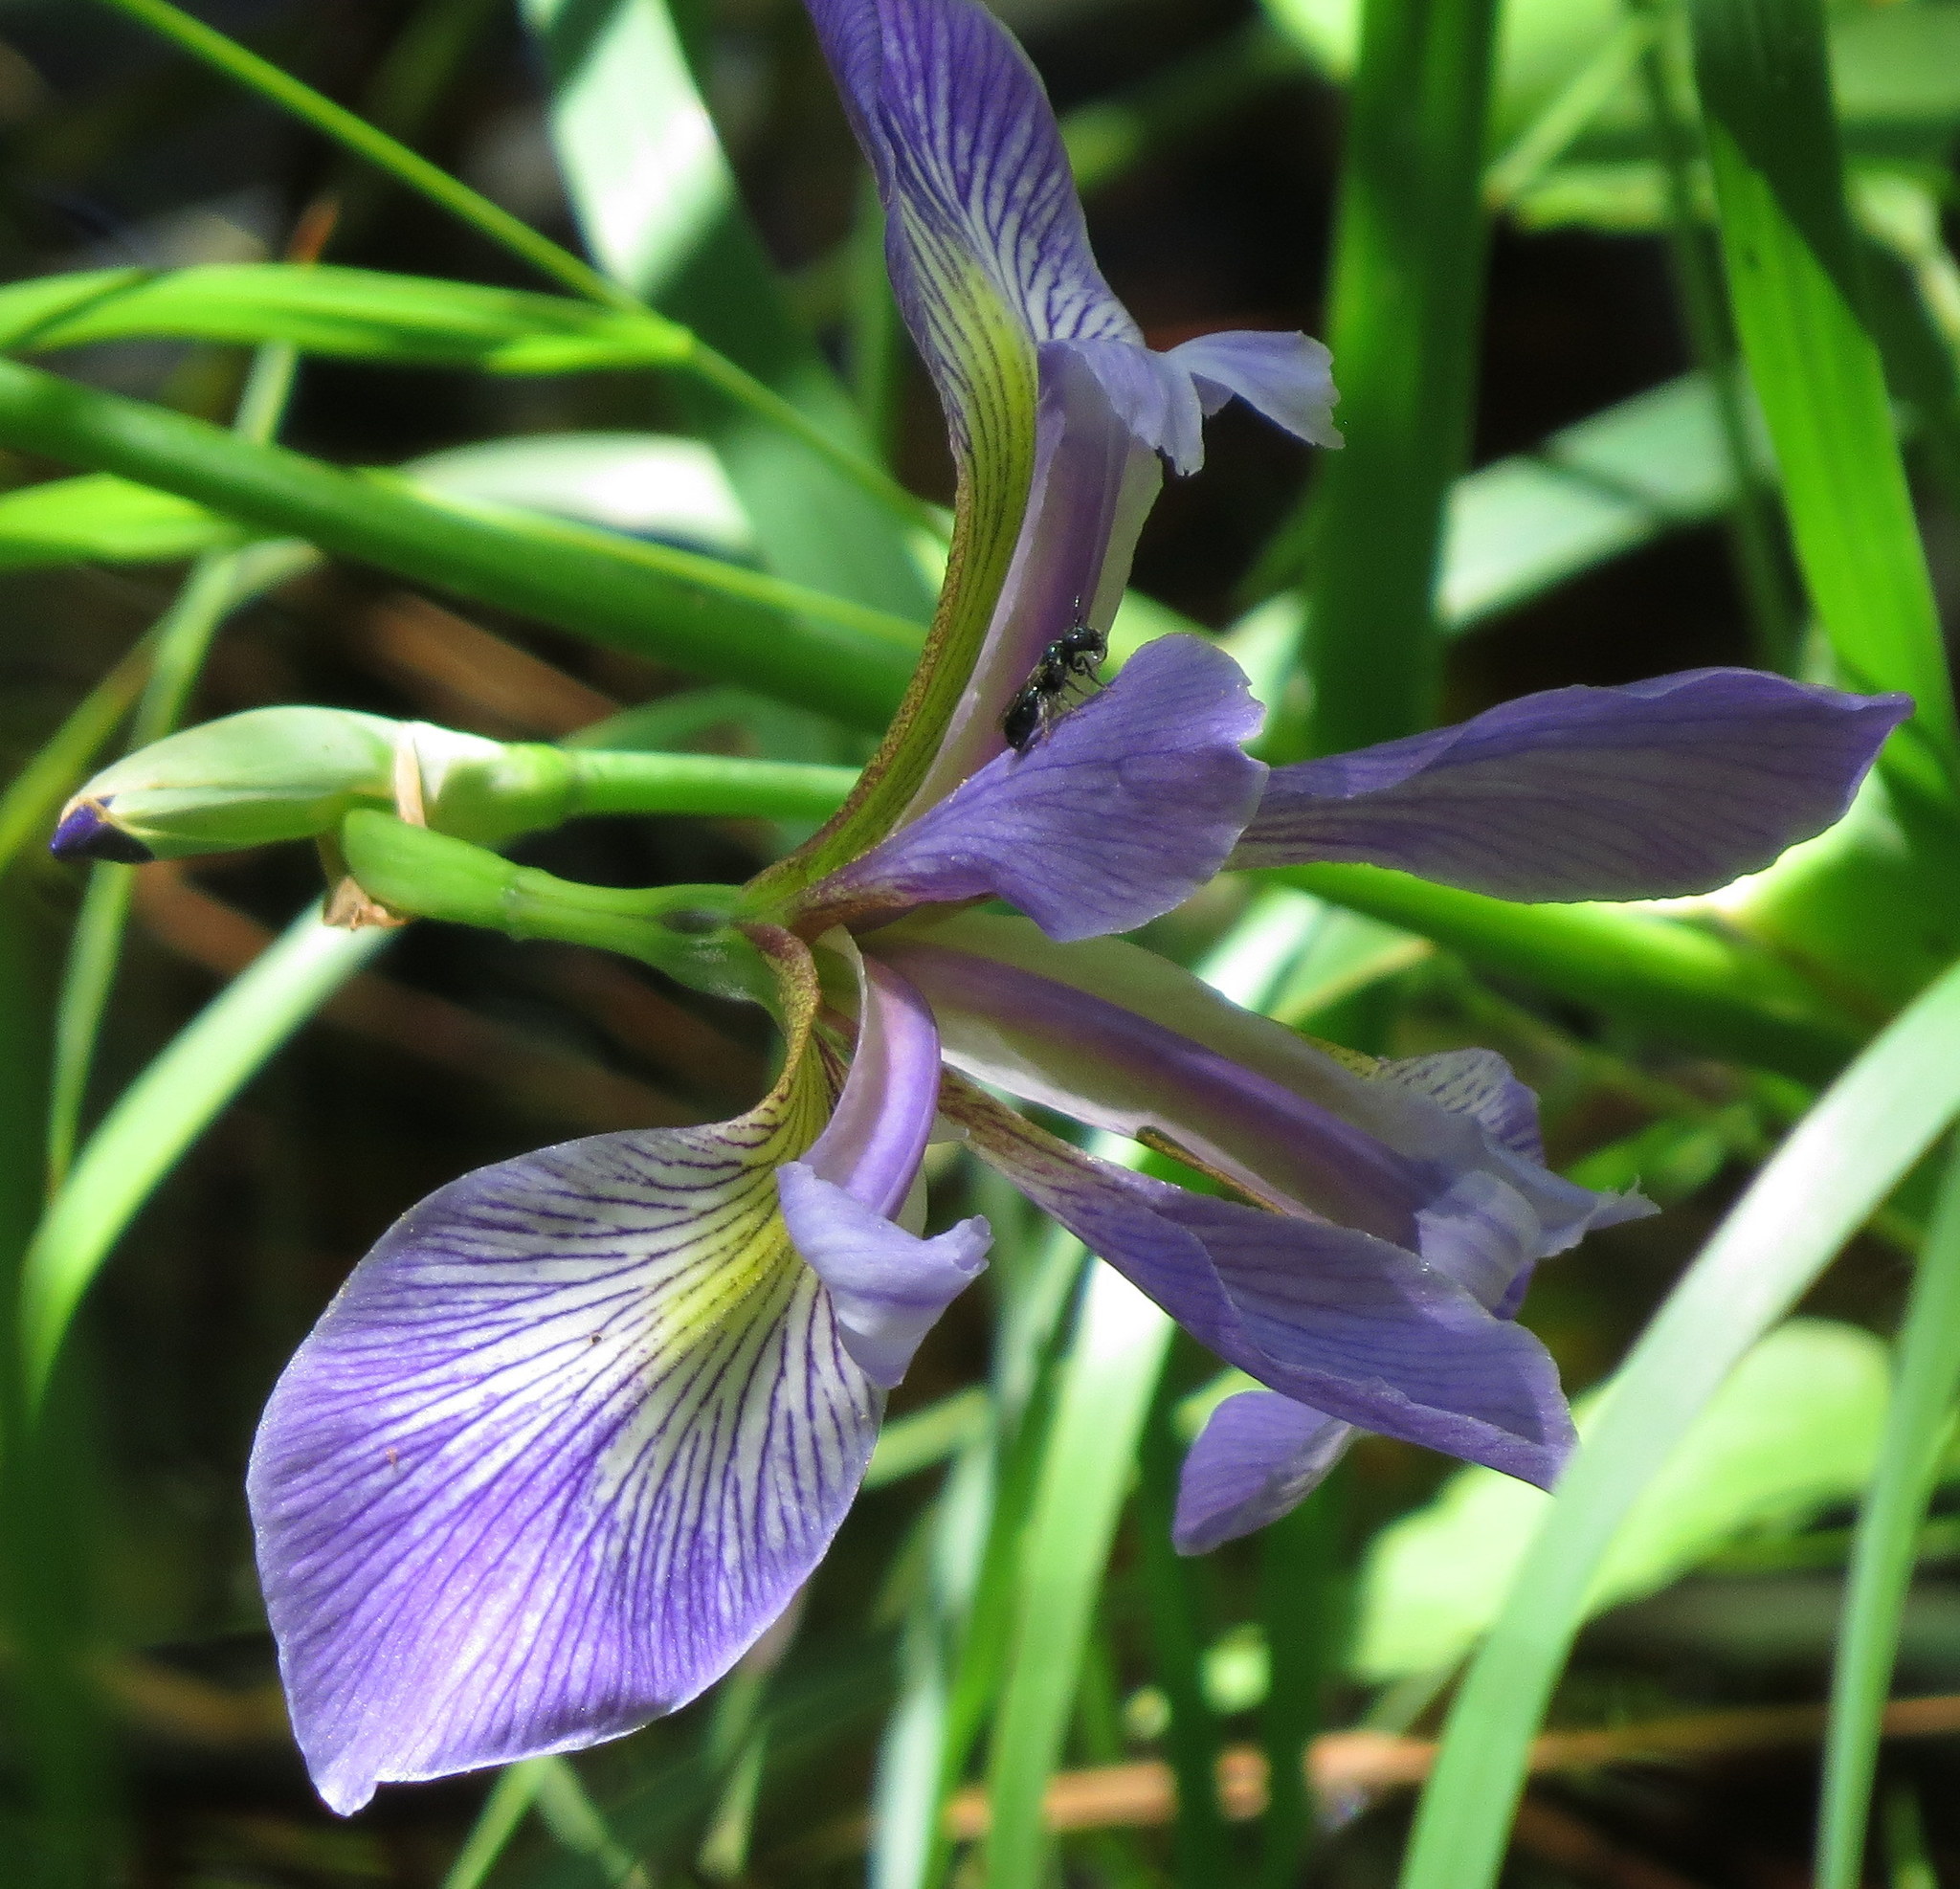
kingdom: Plantae
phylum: Tracheophyta
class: Liliopsida
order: Asparagales
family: Iridaceae
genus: Iris
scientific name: Iris versicolor
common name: Purple iris
